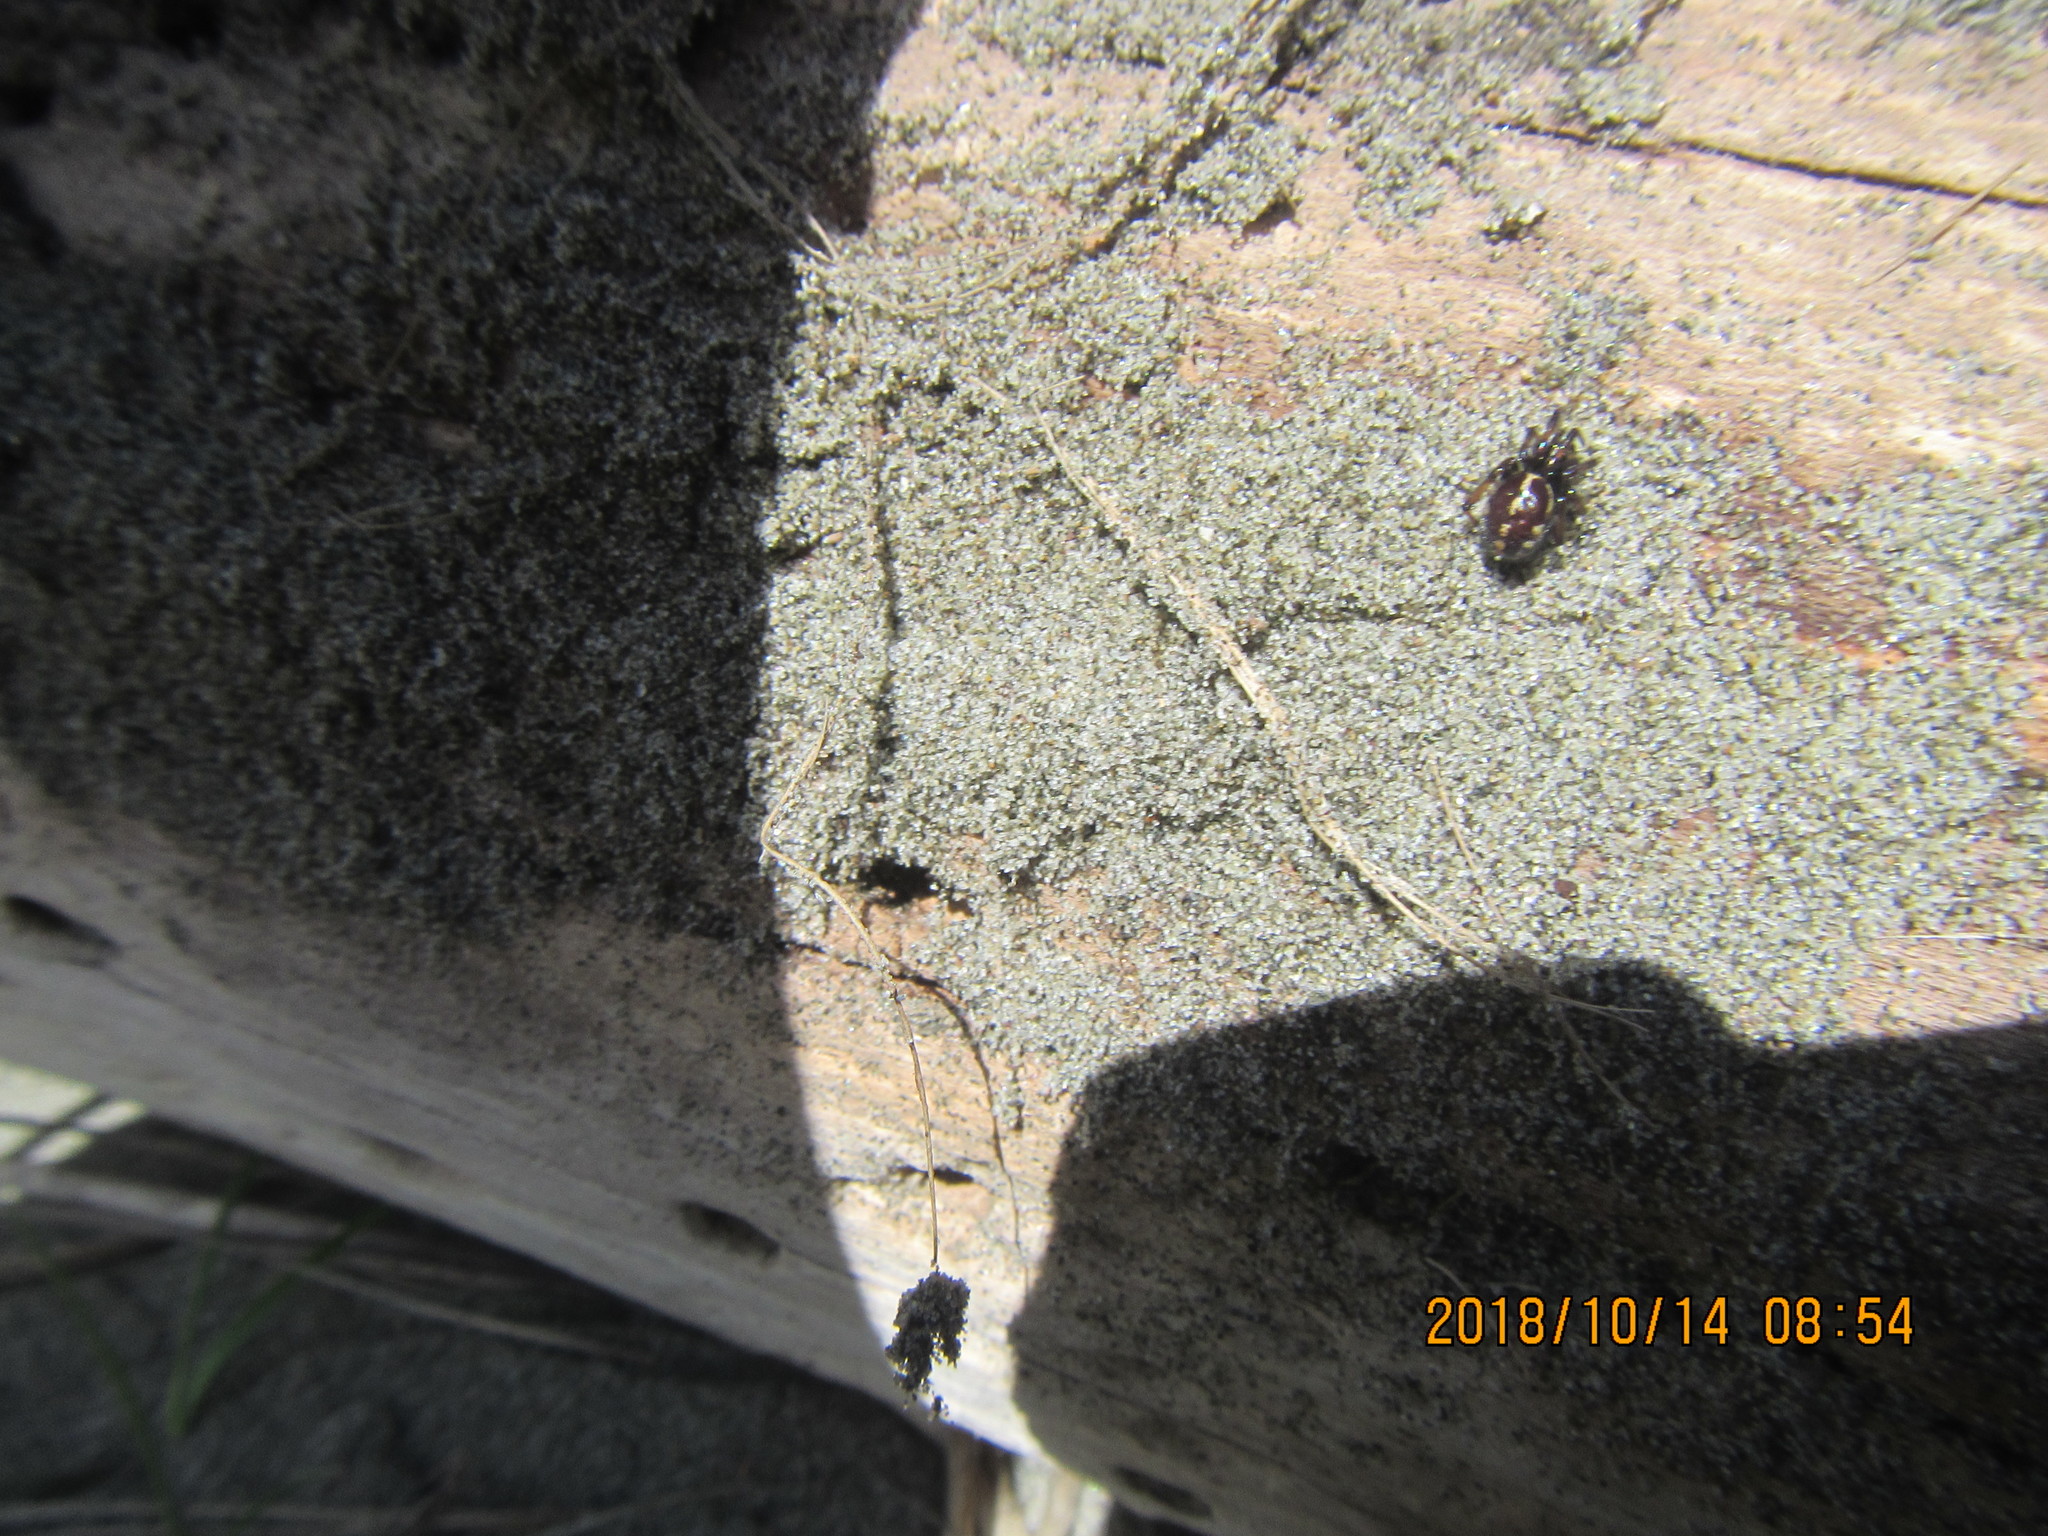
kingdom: Animalia
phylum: Arthropoda
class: Arachnida
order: Araneae
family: Theridiidae
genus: Steatoda
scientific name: Steatoda lepida
